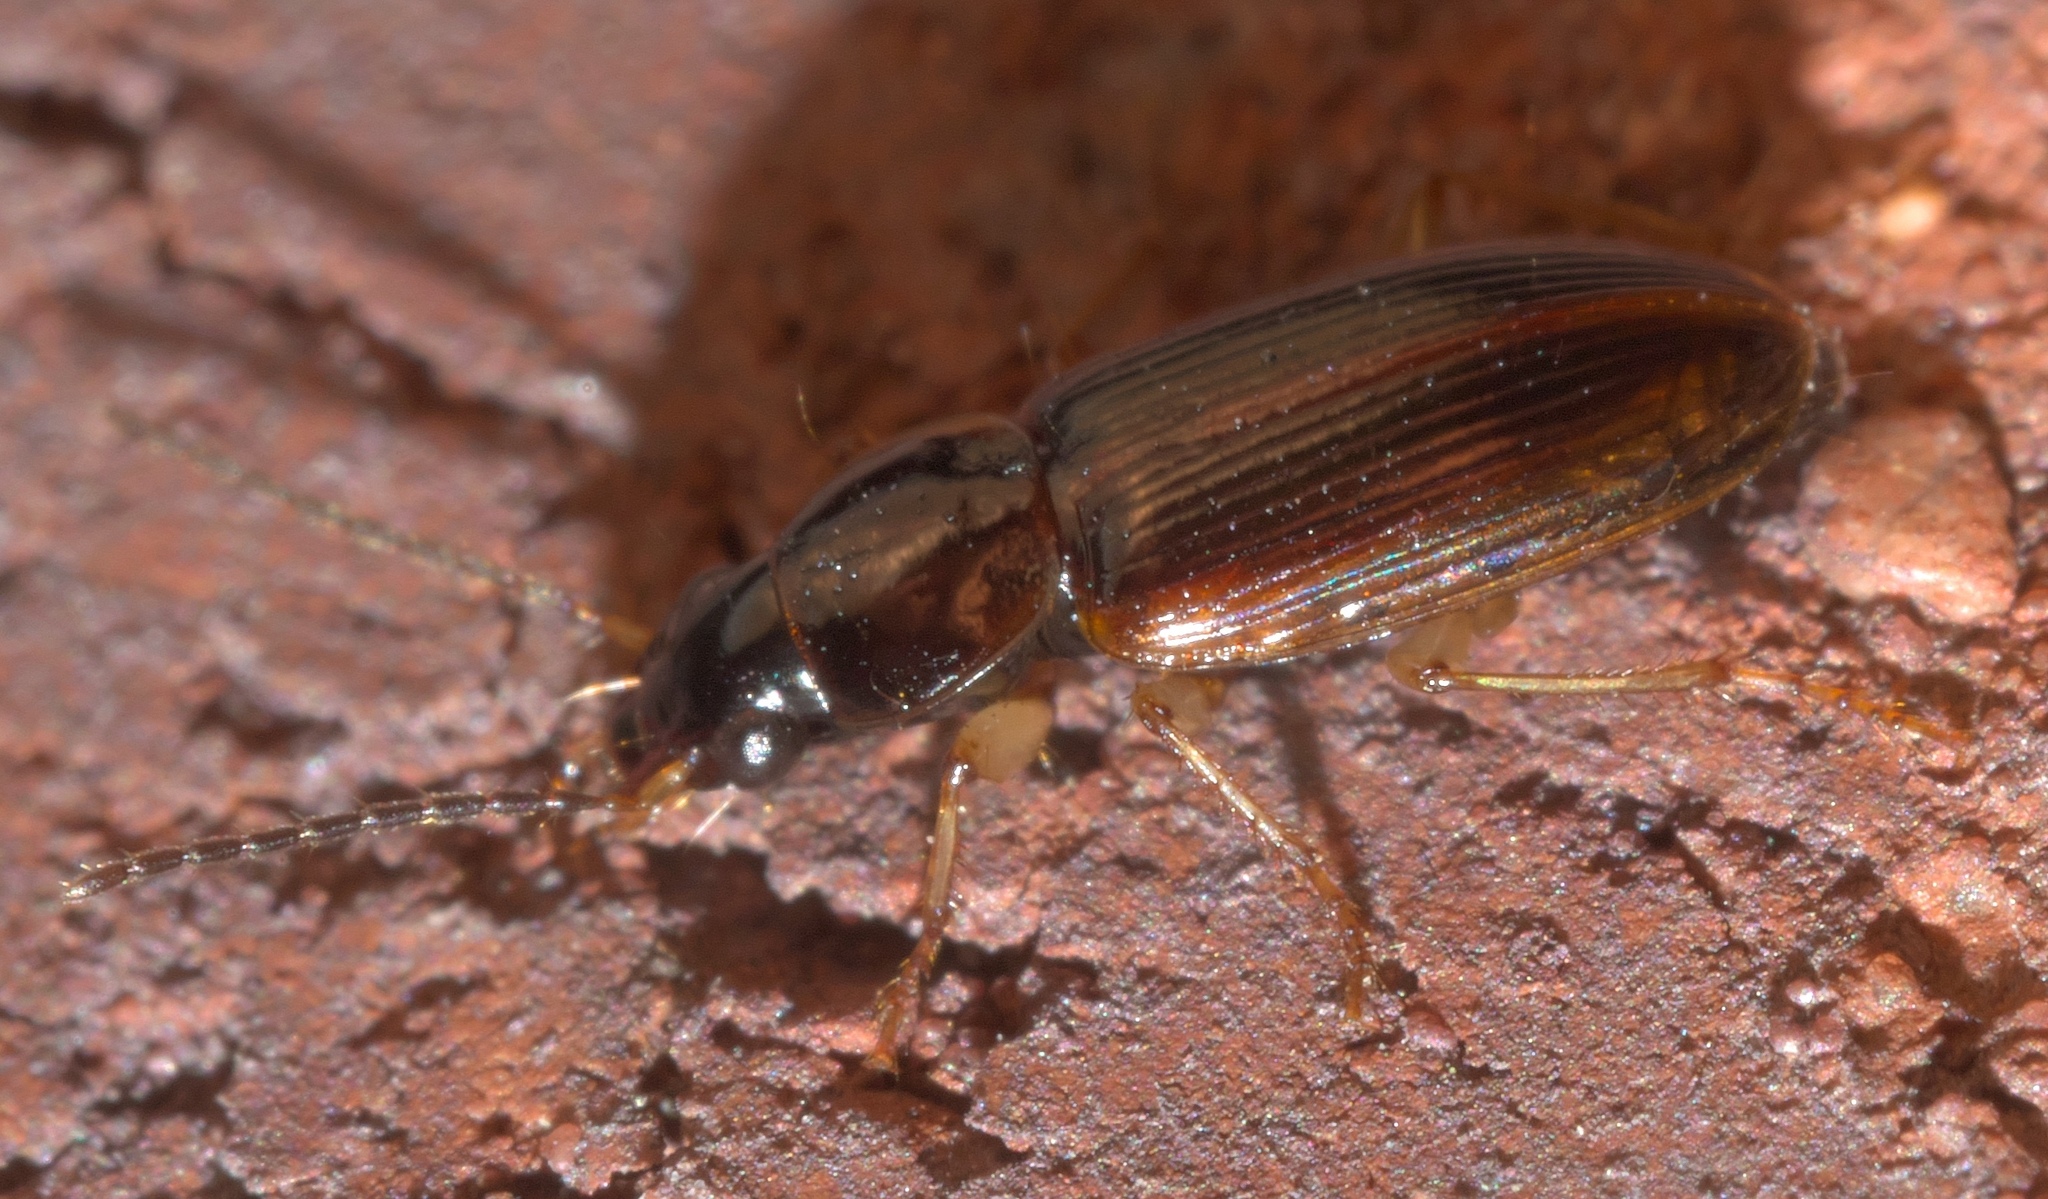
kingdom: Animalia
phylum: Arthropoda
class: Insecta
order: Coleoptera
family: Carabidae
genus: Stenolophus
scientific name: Stenolophus ochropezus
